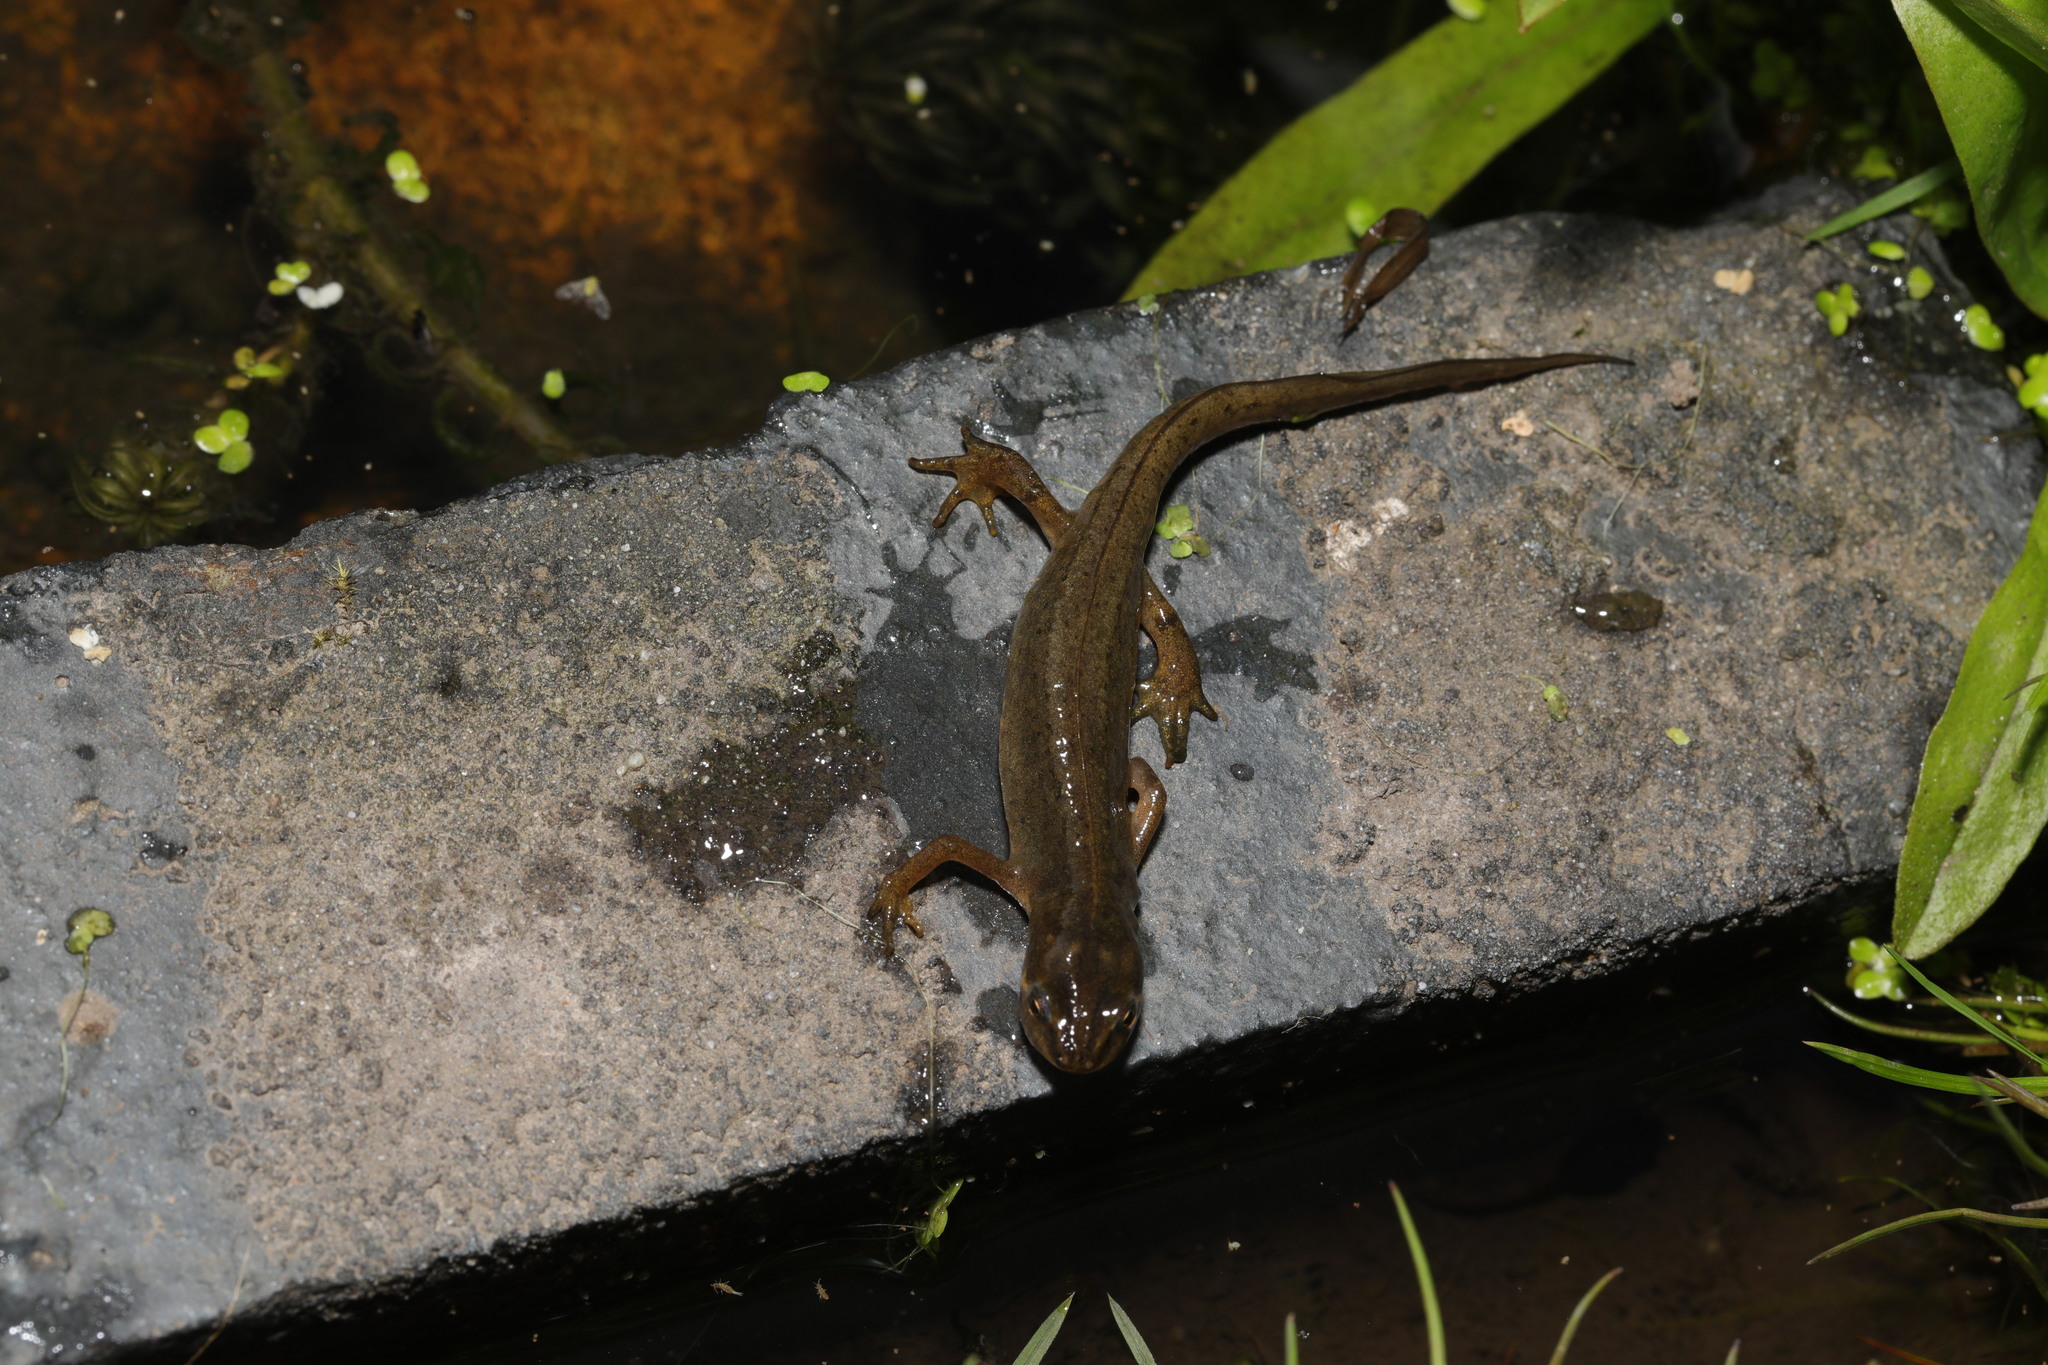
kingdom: Animalia
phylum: Chordata
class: Amphibia
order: Caudata
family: Salamandridae
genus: Lissotriton
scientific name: Lissotriton vulgaris
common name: Smooth newt
